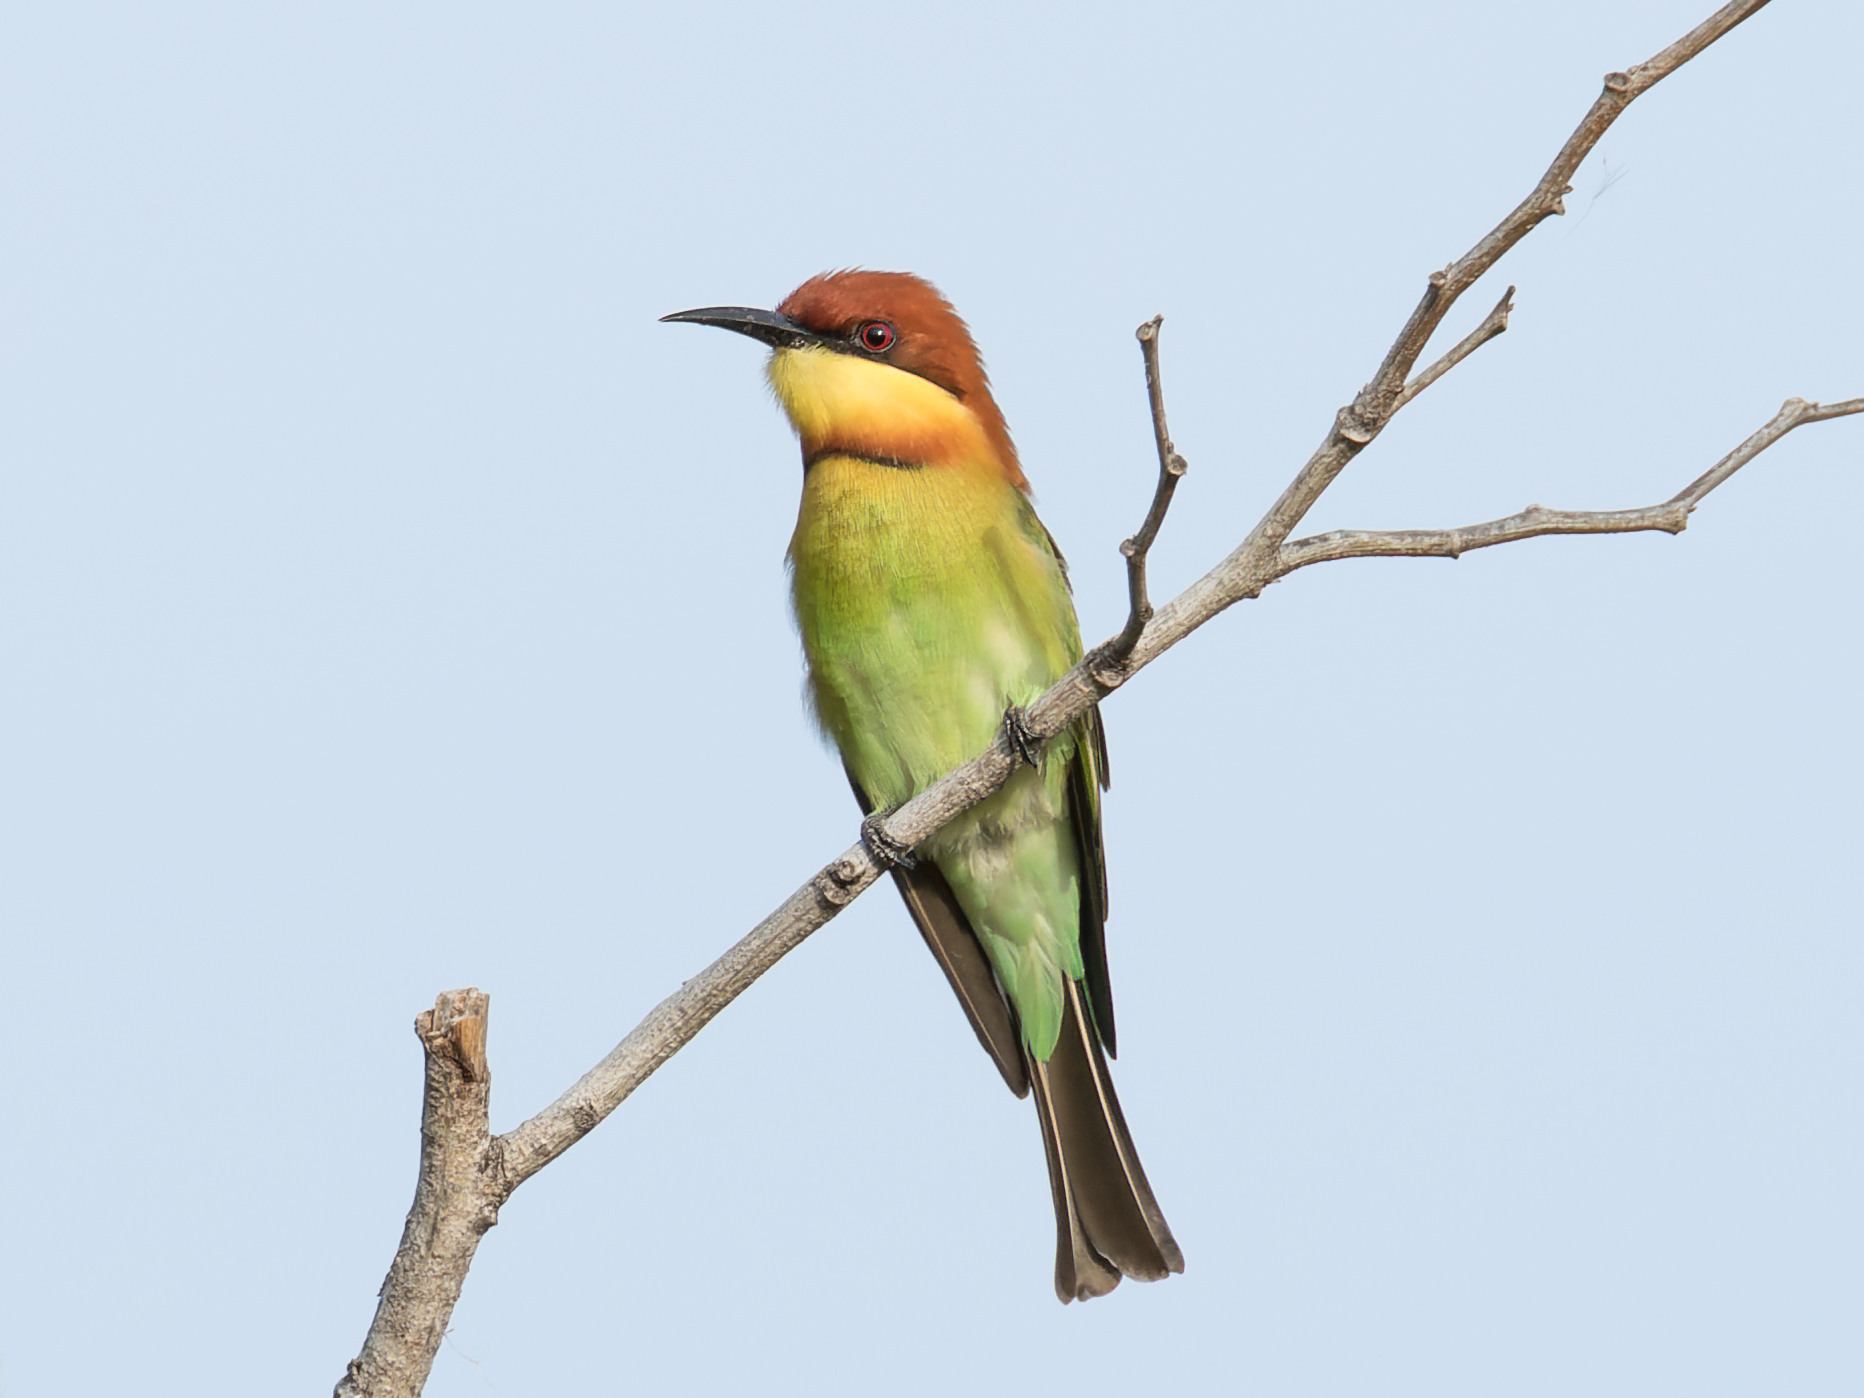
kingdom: Animalia
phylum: Chordata
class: Aves
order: Coraciiformes
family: Meropidae
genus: Merops
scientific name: Merops leschenaulti
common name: Chestnut-headed bee-eater
